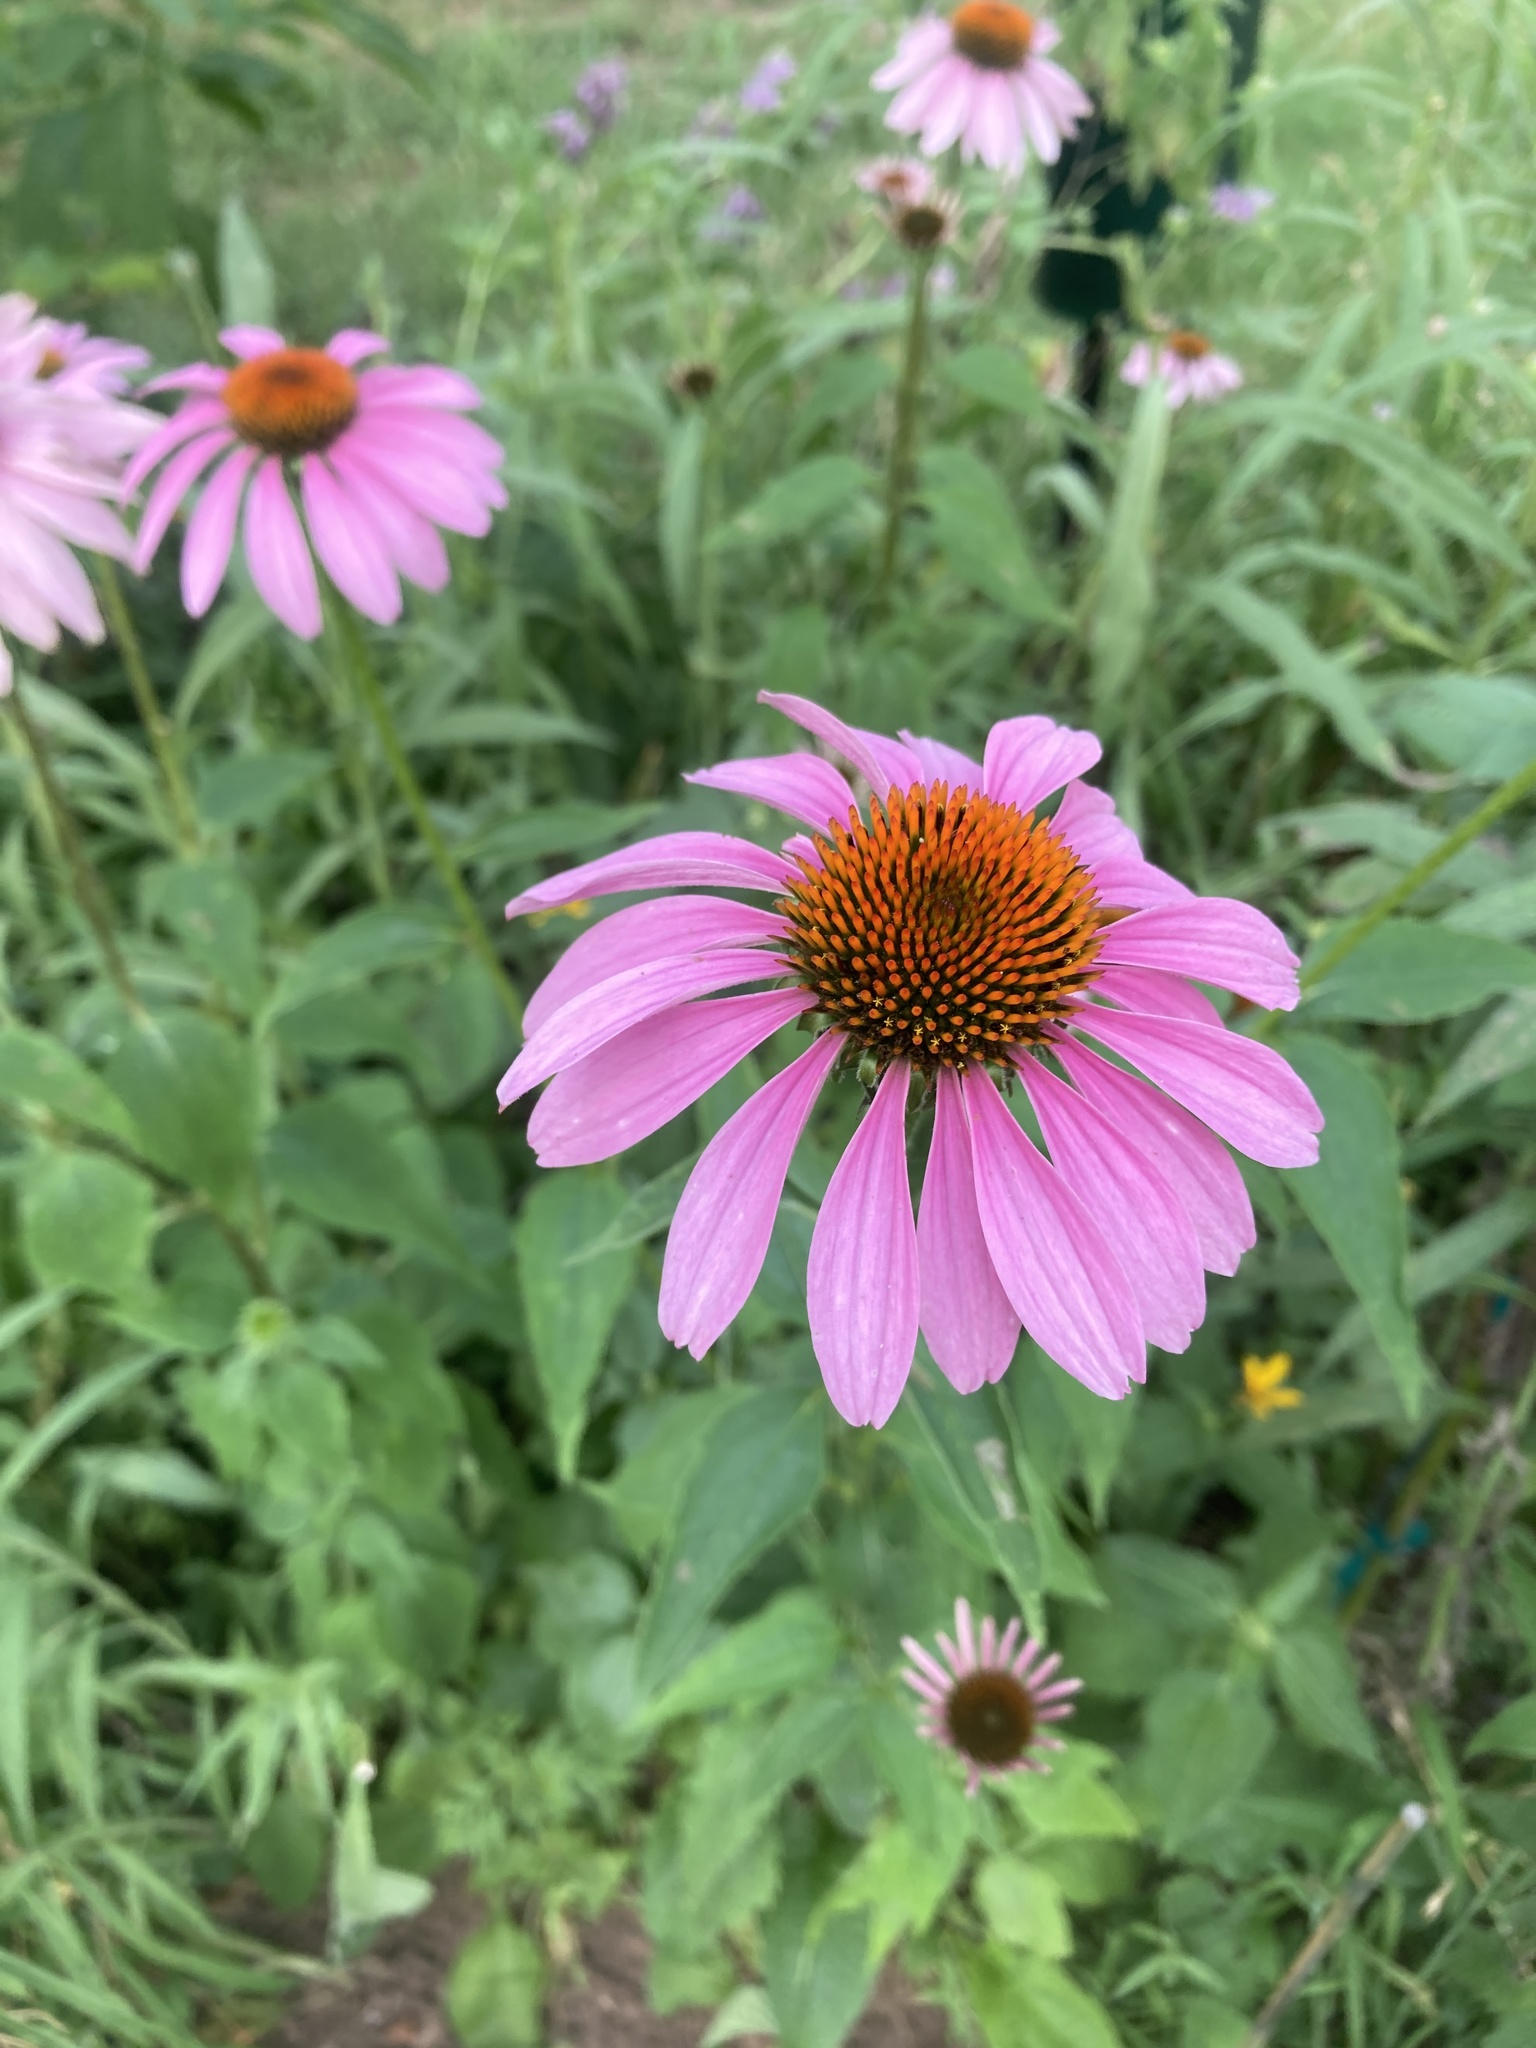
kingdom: Plantae
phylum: Tracheophyta
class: Magnoliopsida
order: Asterales
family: Asteraceae
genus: Echinacea
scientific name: Echinacea purpurea
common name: Broad-leaved purple coneflower
